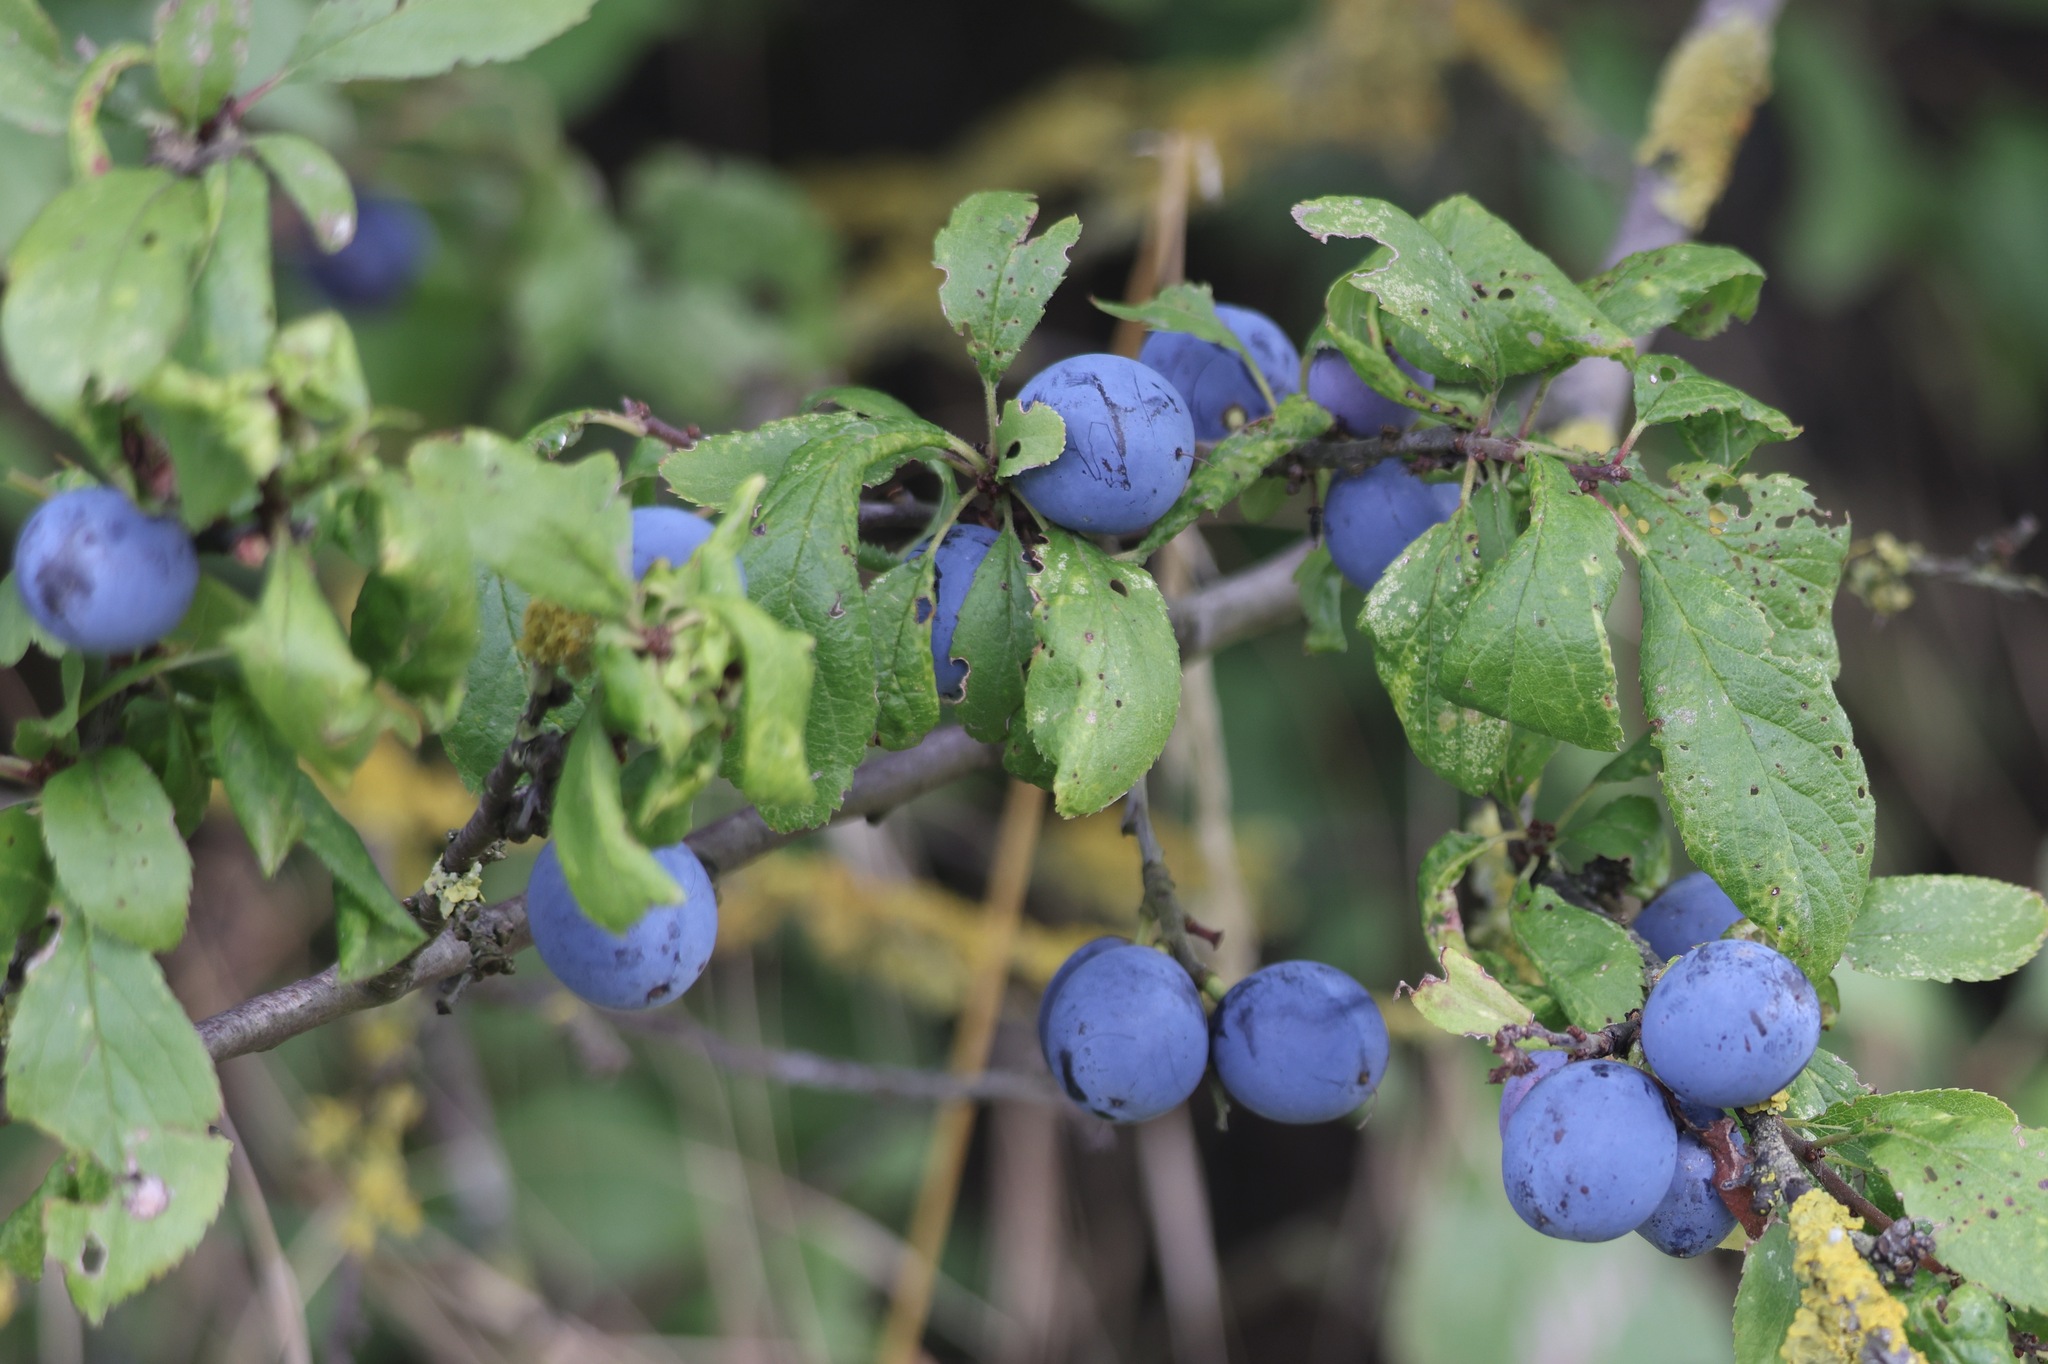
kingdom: Plantae
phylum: Tracheophyta
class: Magnoliopsida
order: Rosales
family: Rosaceae
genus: Prunus
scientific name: Prunus spinosa
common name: Blackthorn
